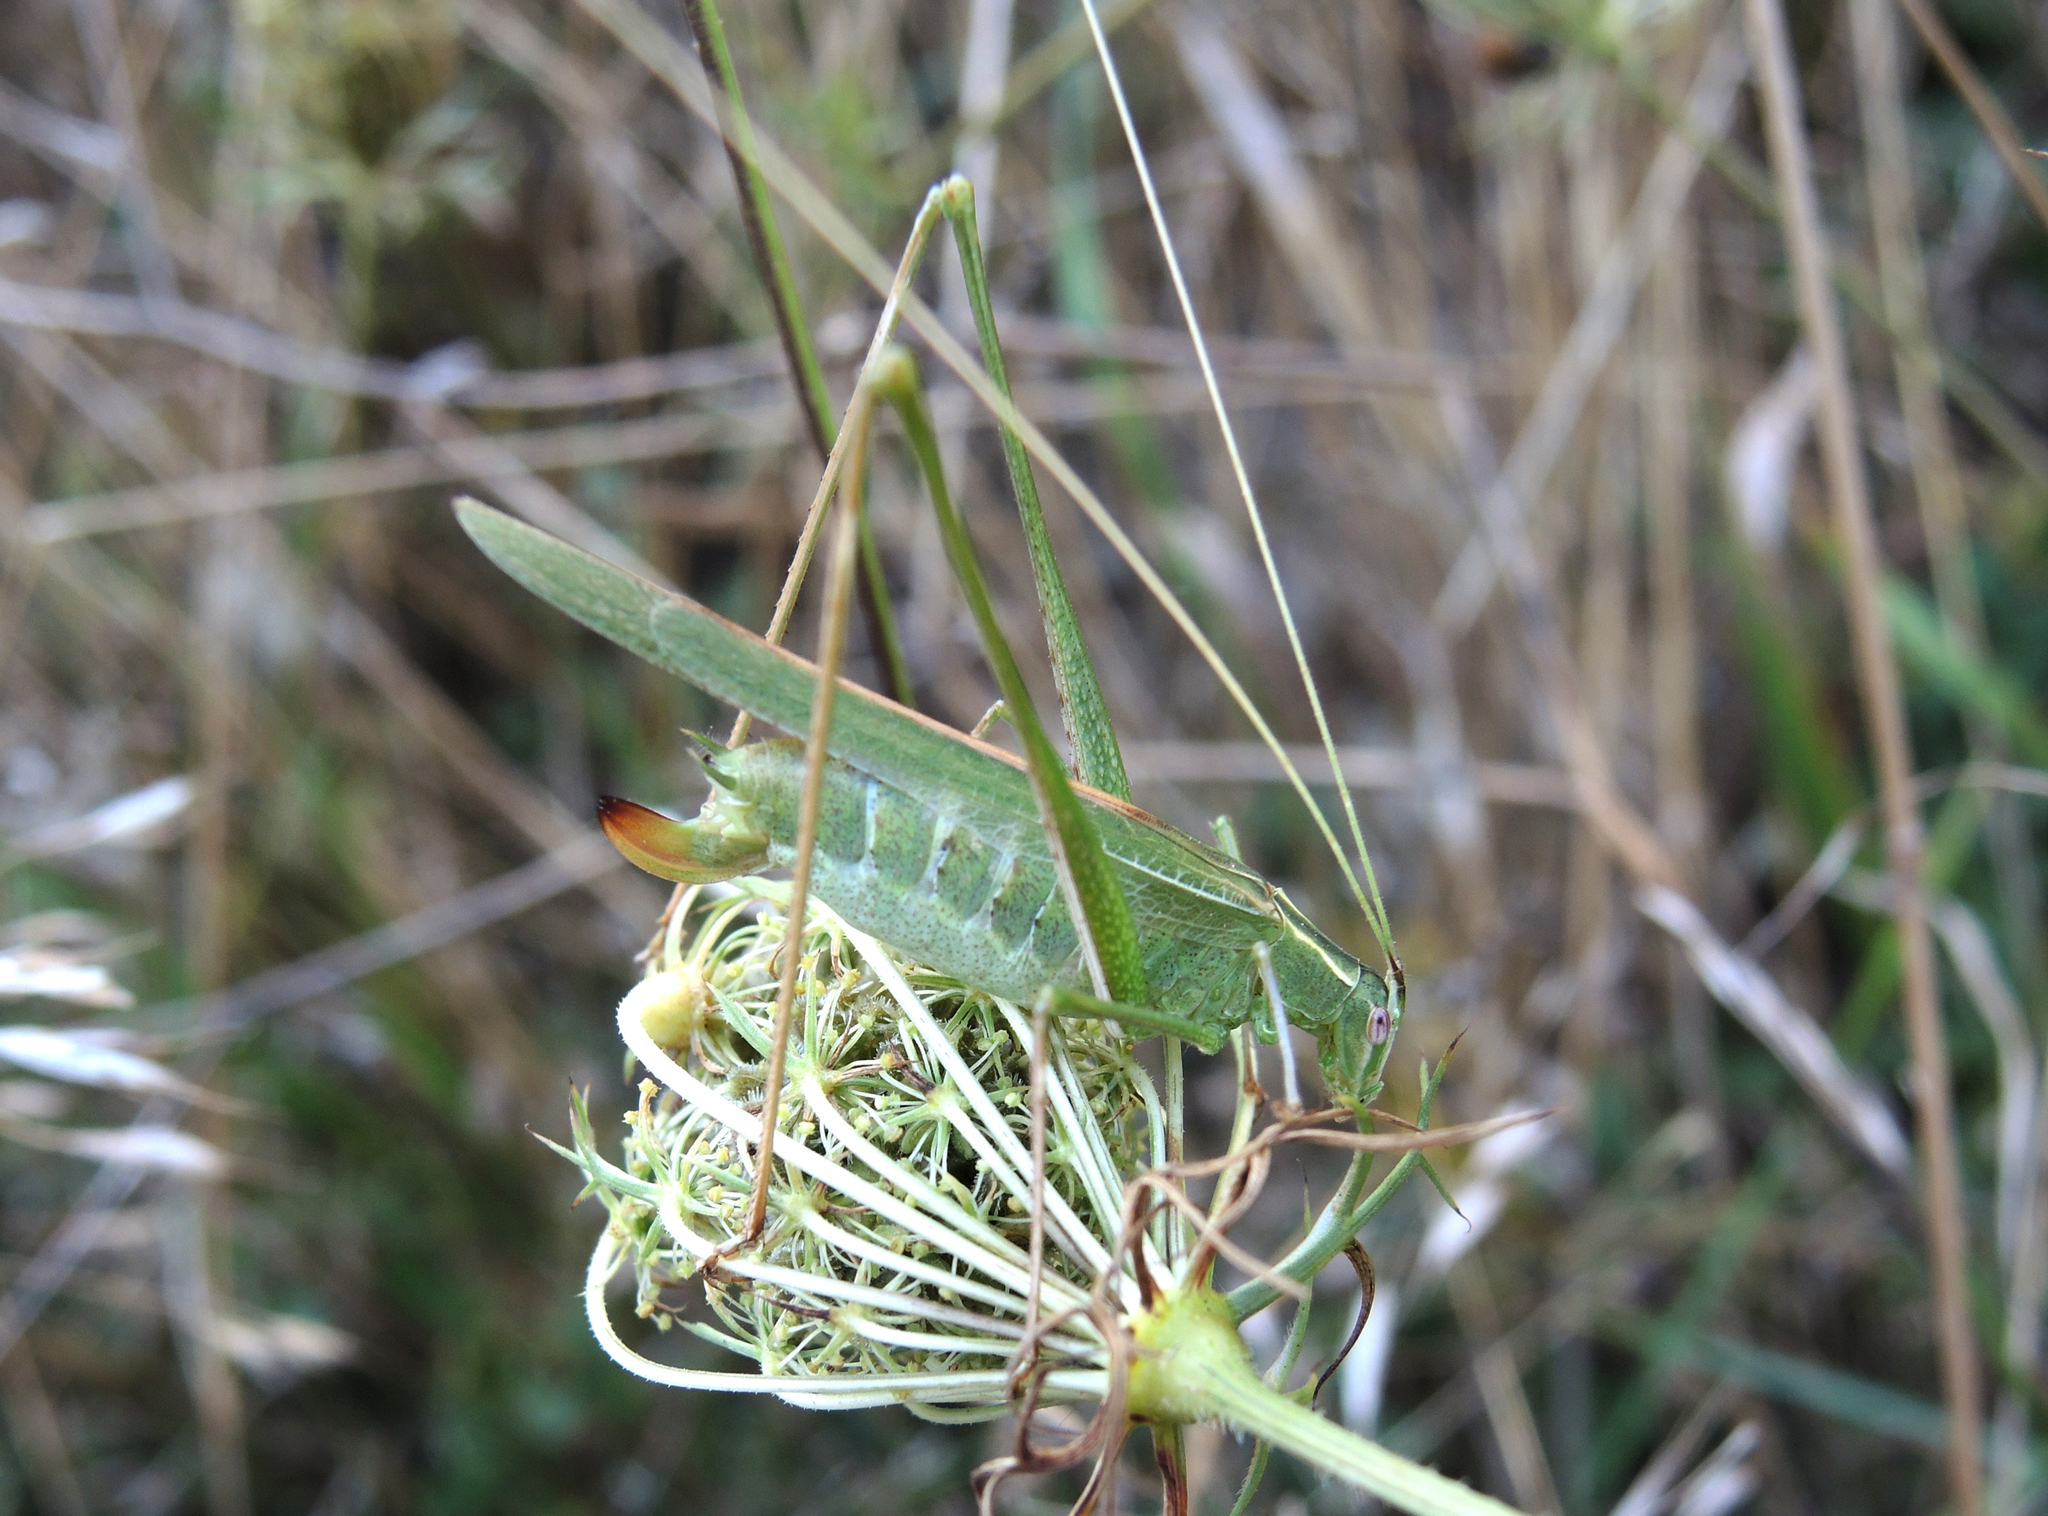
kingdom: Animalia
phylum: Arthropoda
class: Insecta
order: Orthoptera
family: Tettigoniidae
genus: Tylopsis
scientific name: Tylopsis lilifolia
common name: Lily bush-cricket
